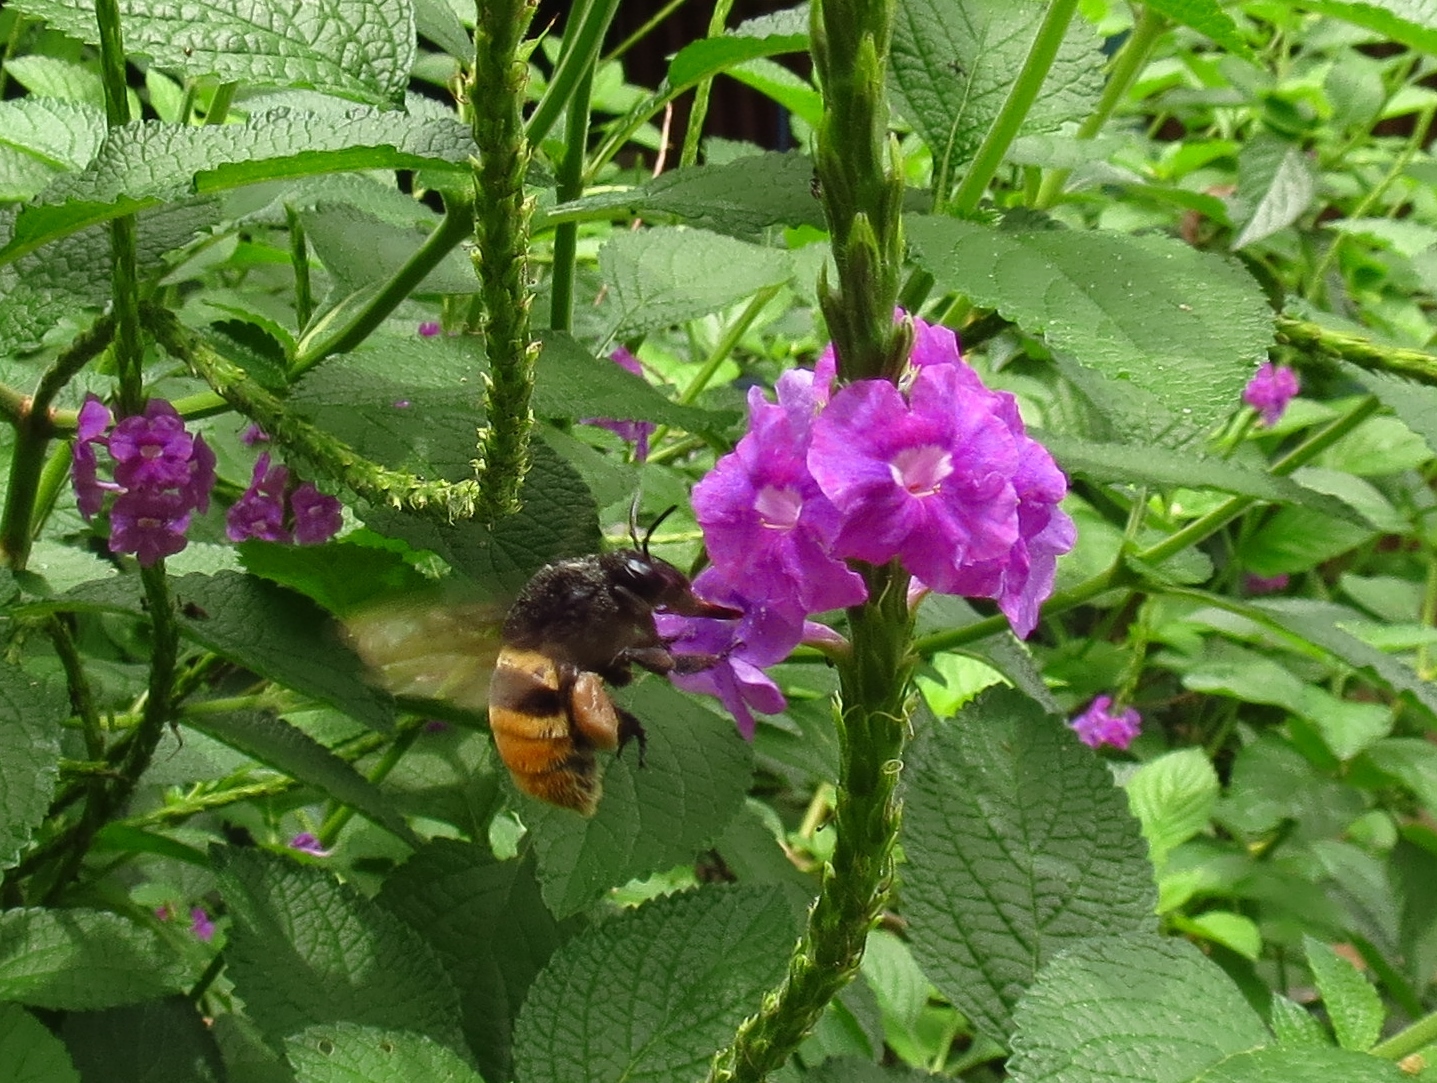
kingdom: Animalia
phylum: Arthropoda
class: Insecta
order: Hymenoptera
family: Apidae
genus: Eulaema
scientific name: Eulaema cingulata
